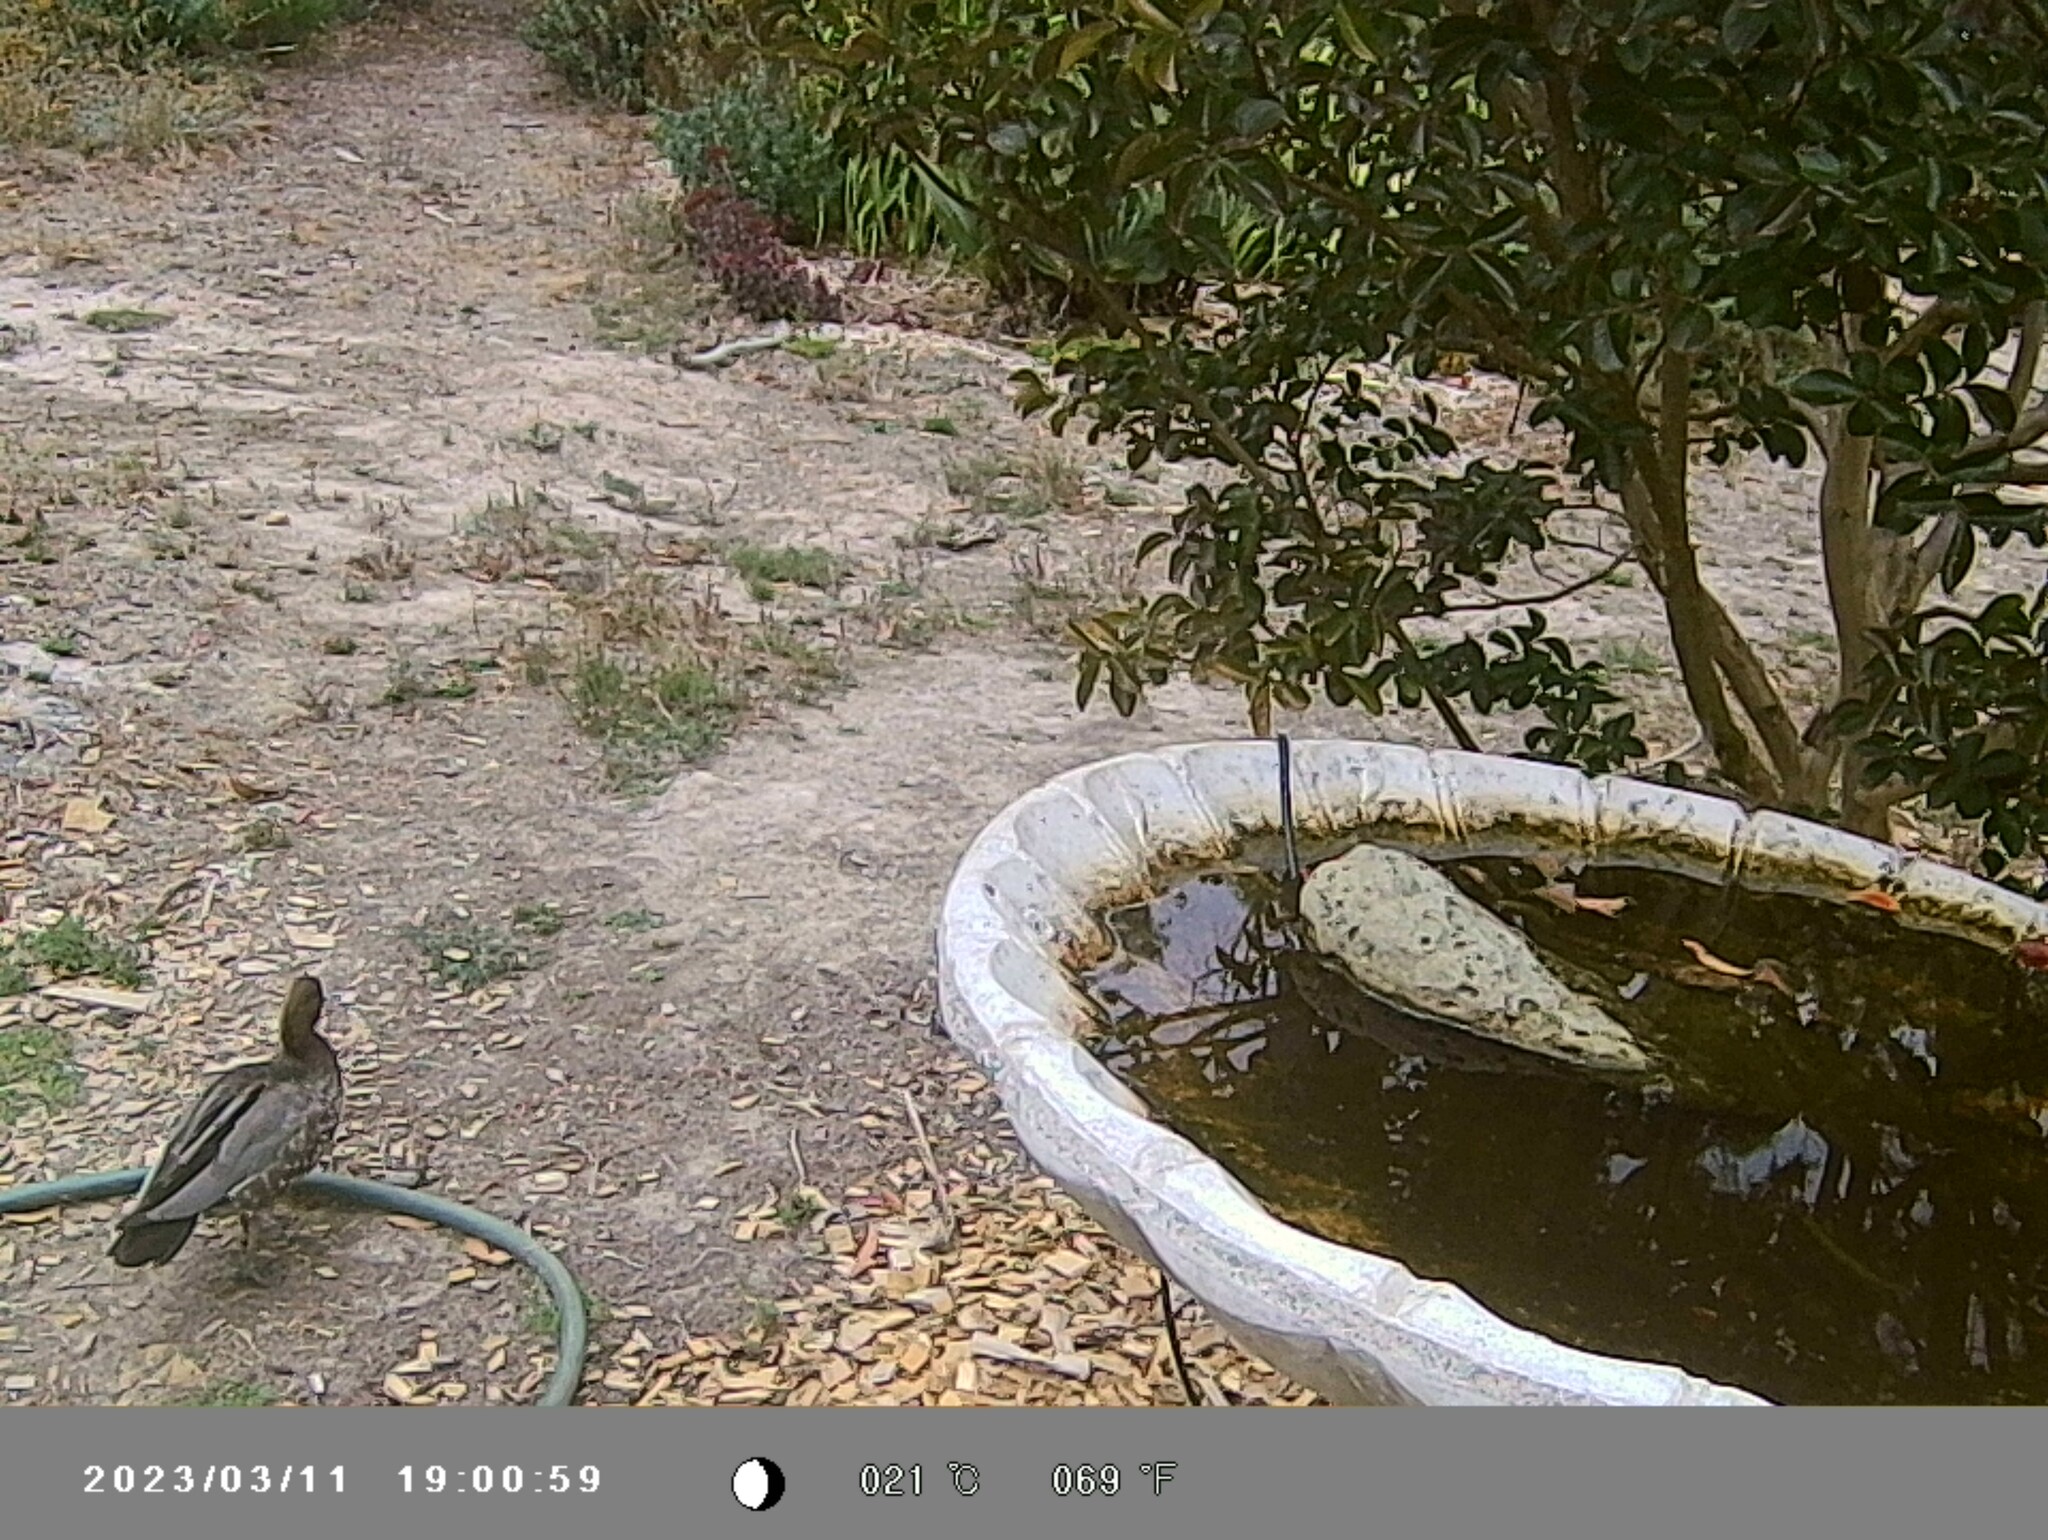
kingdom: Animalia
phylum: Chordata
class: Aves
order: Anseriformes
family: Anatidae
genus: Chenonetta
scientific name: Chenonetta jubata
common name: Maned duck
